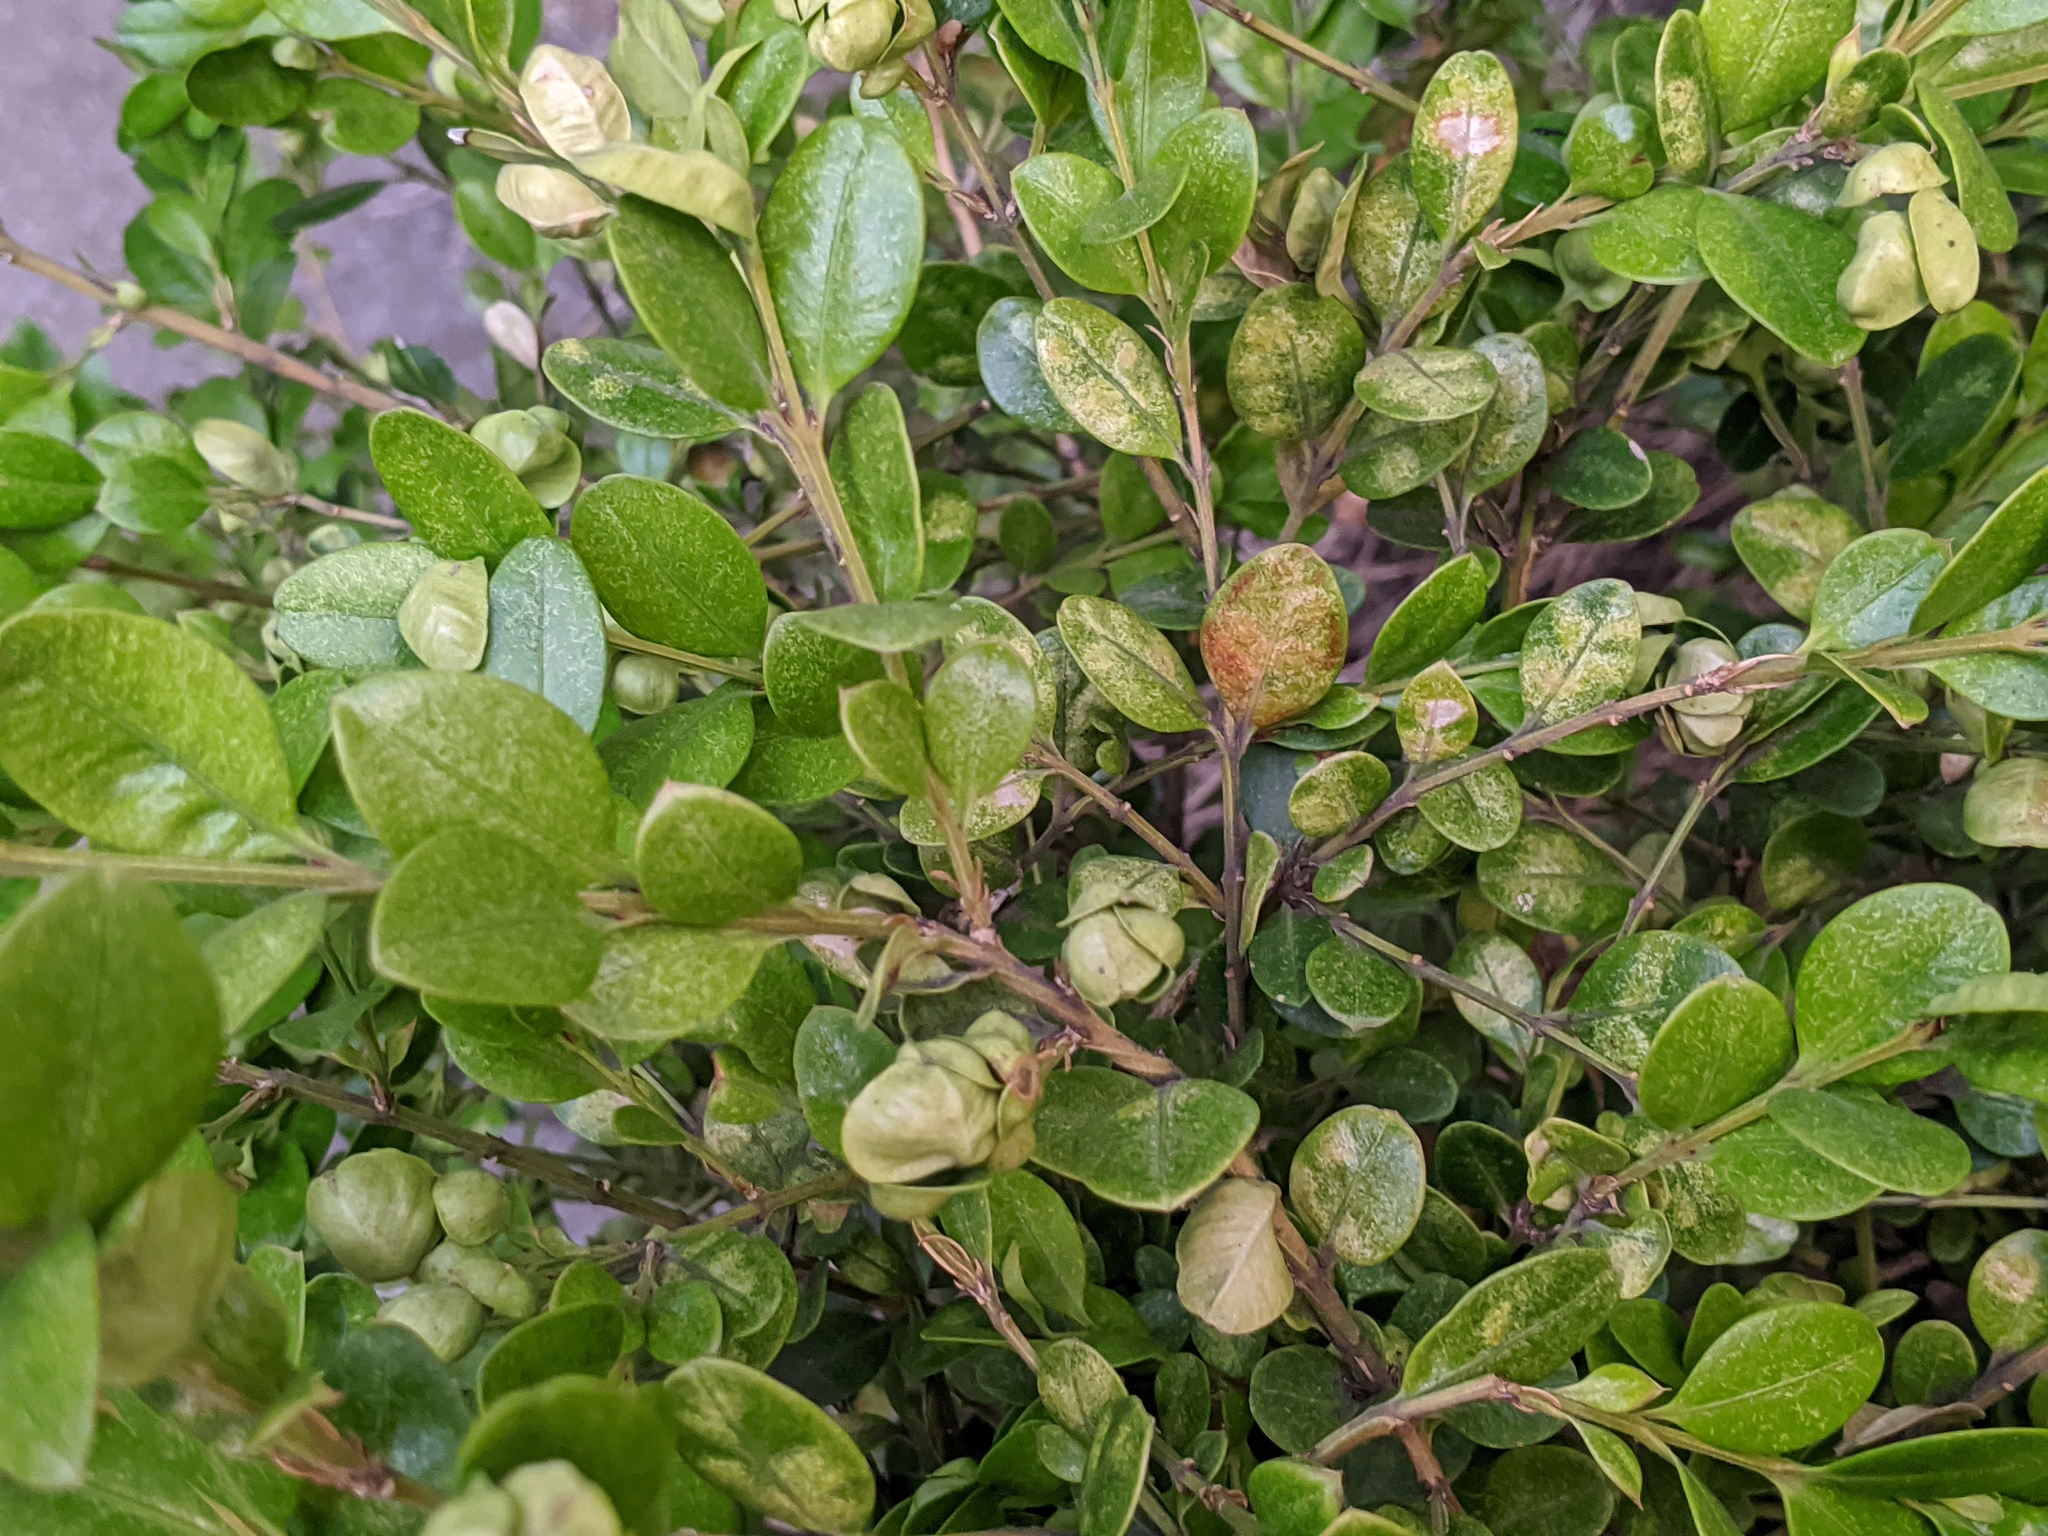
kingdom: Animalia
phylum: Arthropoda
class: Insecta
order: Hemiptera
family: Psyllidae
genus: Psylla
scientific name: Psylla buxi
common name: Boxwood psyllid
